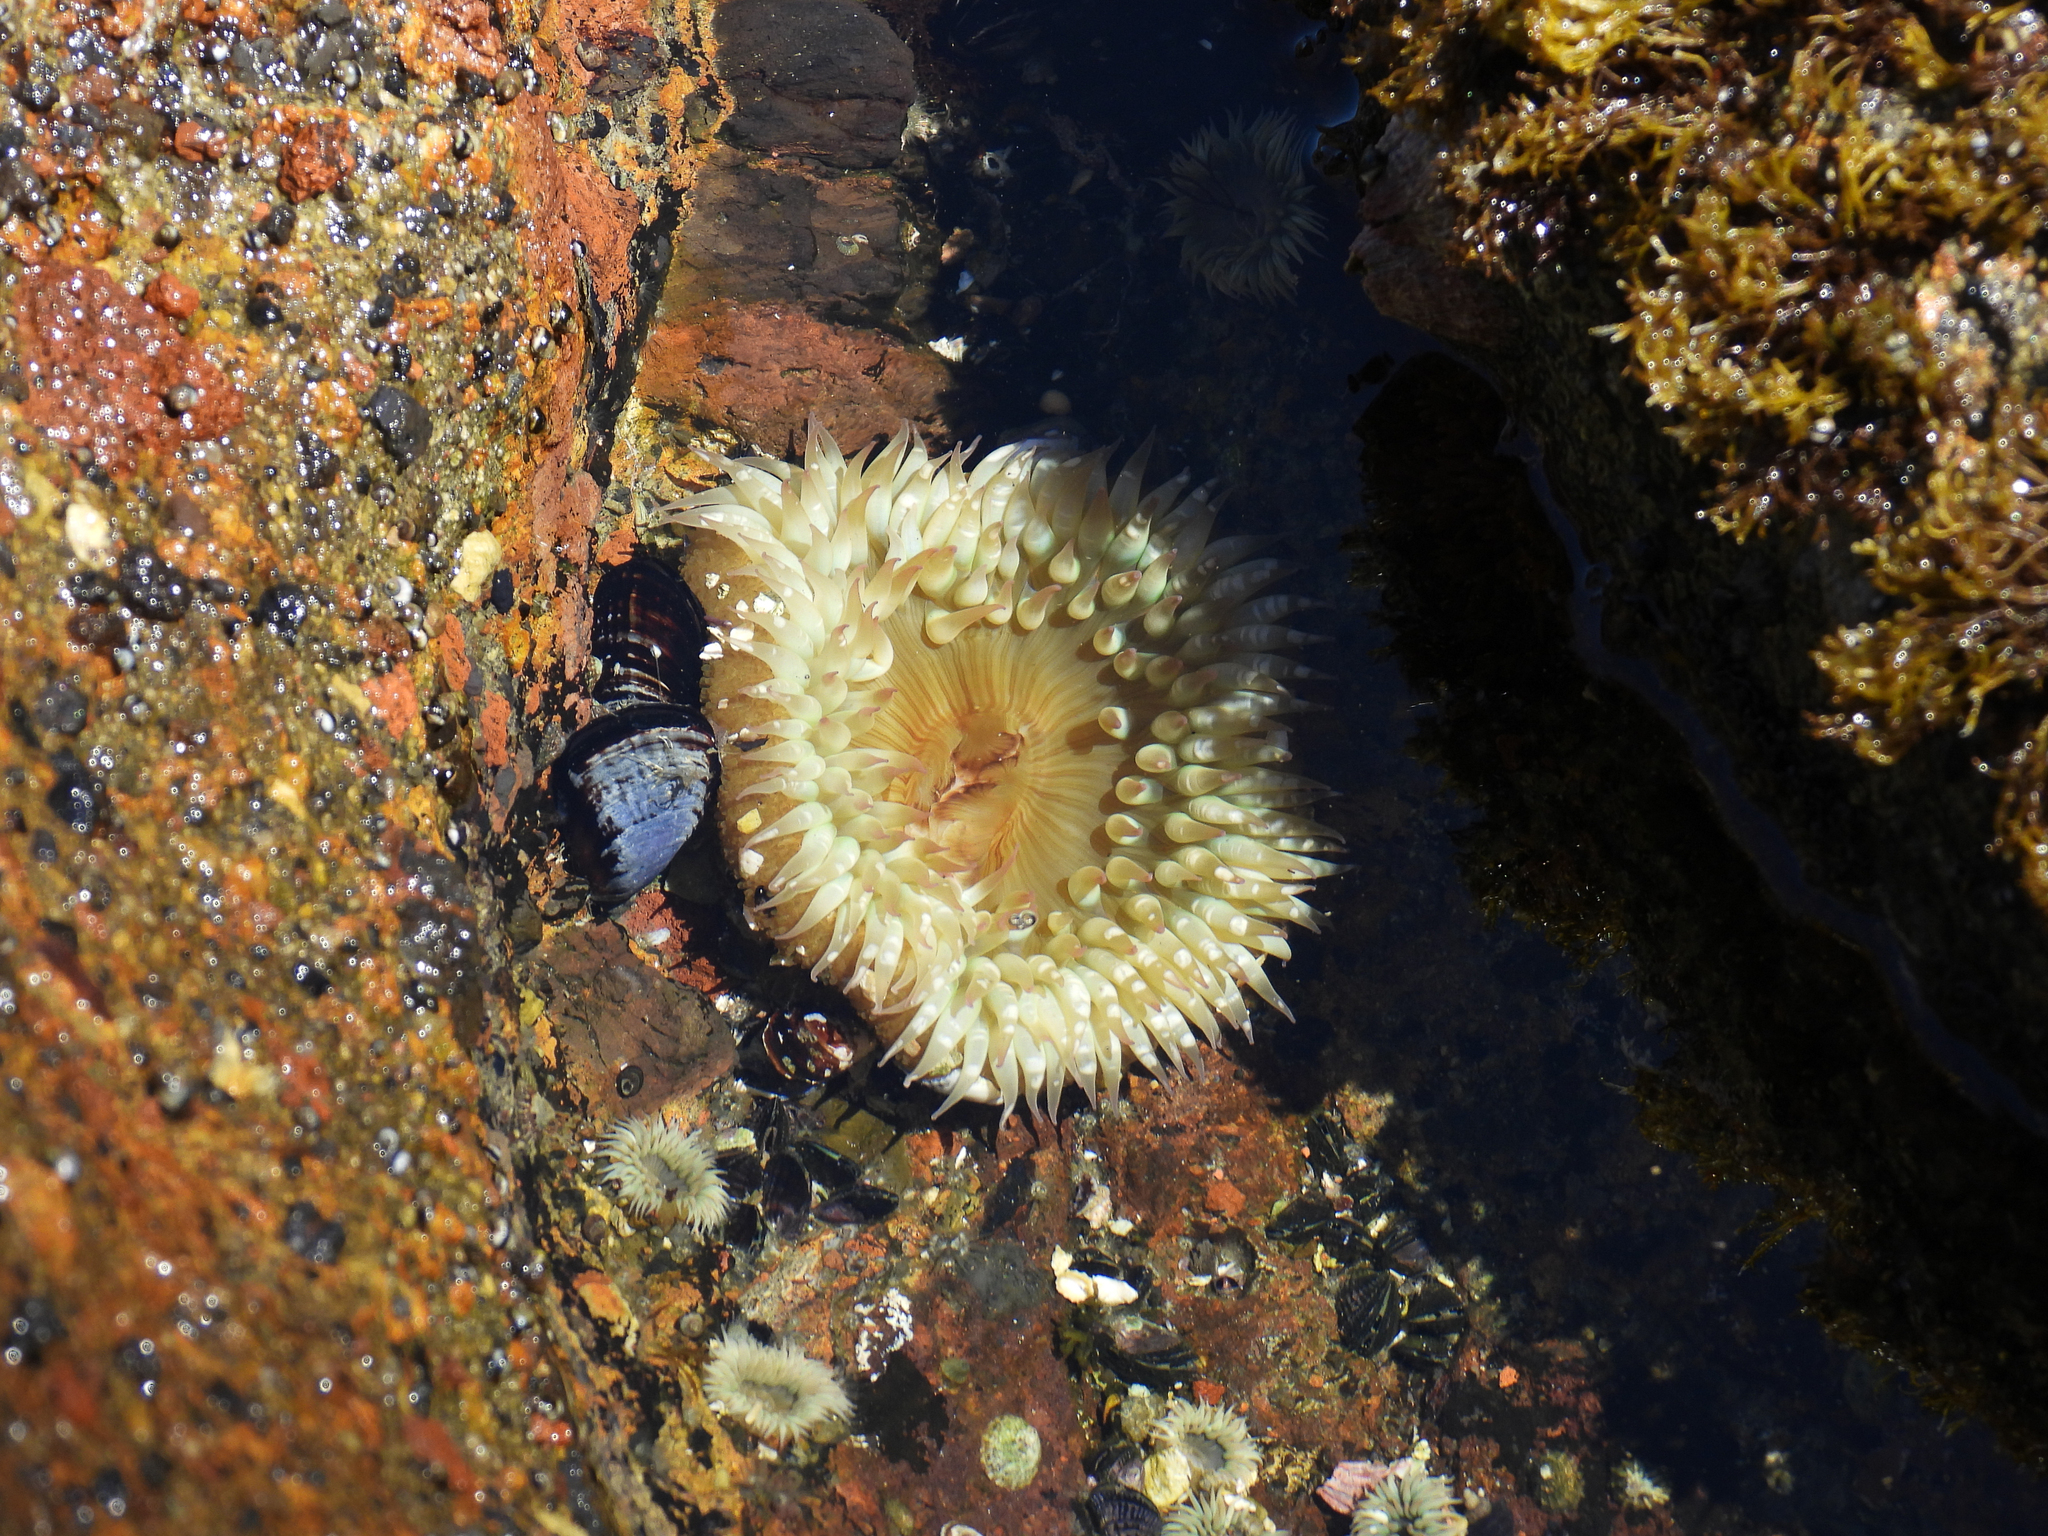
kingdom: Animalia
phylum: Cnidaria
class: Anthozoa
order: Actiniaria
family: Actiniidae
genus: Anthopleura
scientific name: Anthopleura sola
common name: Sun anemone
